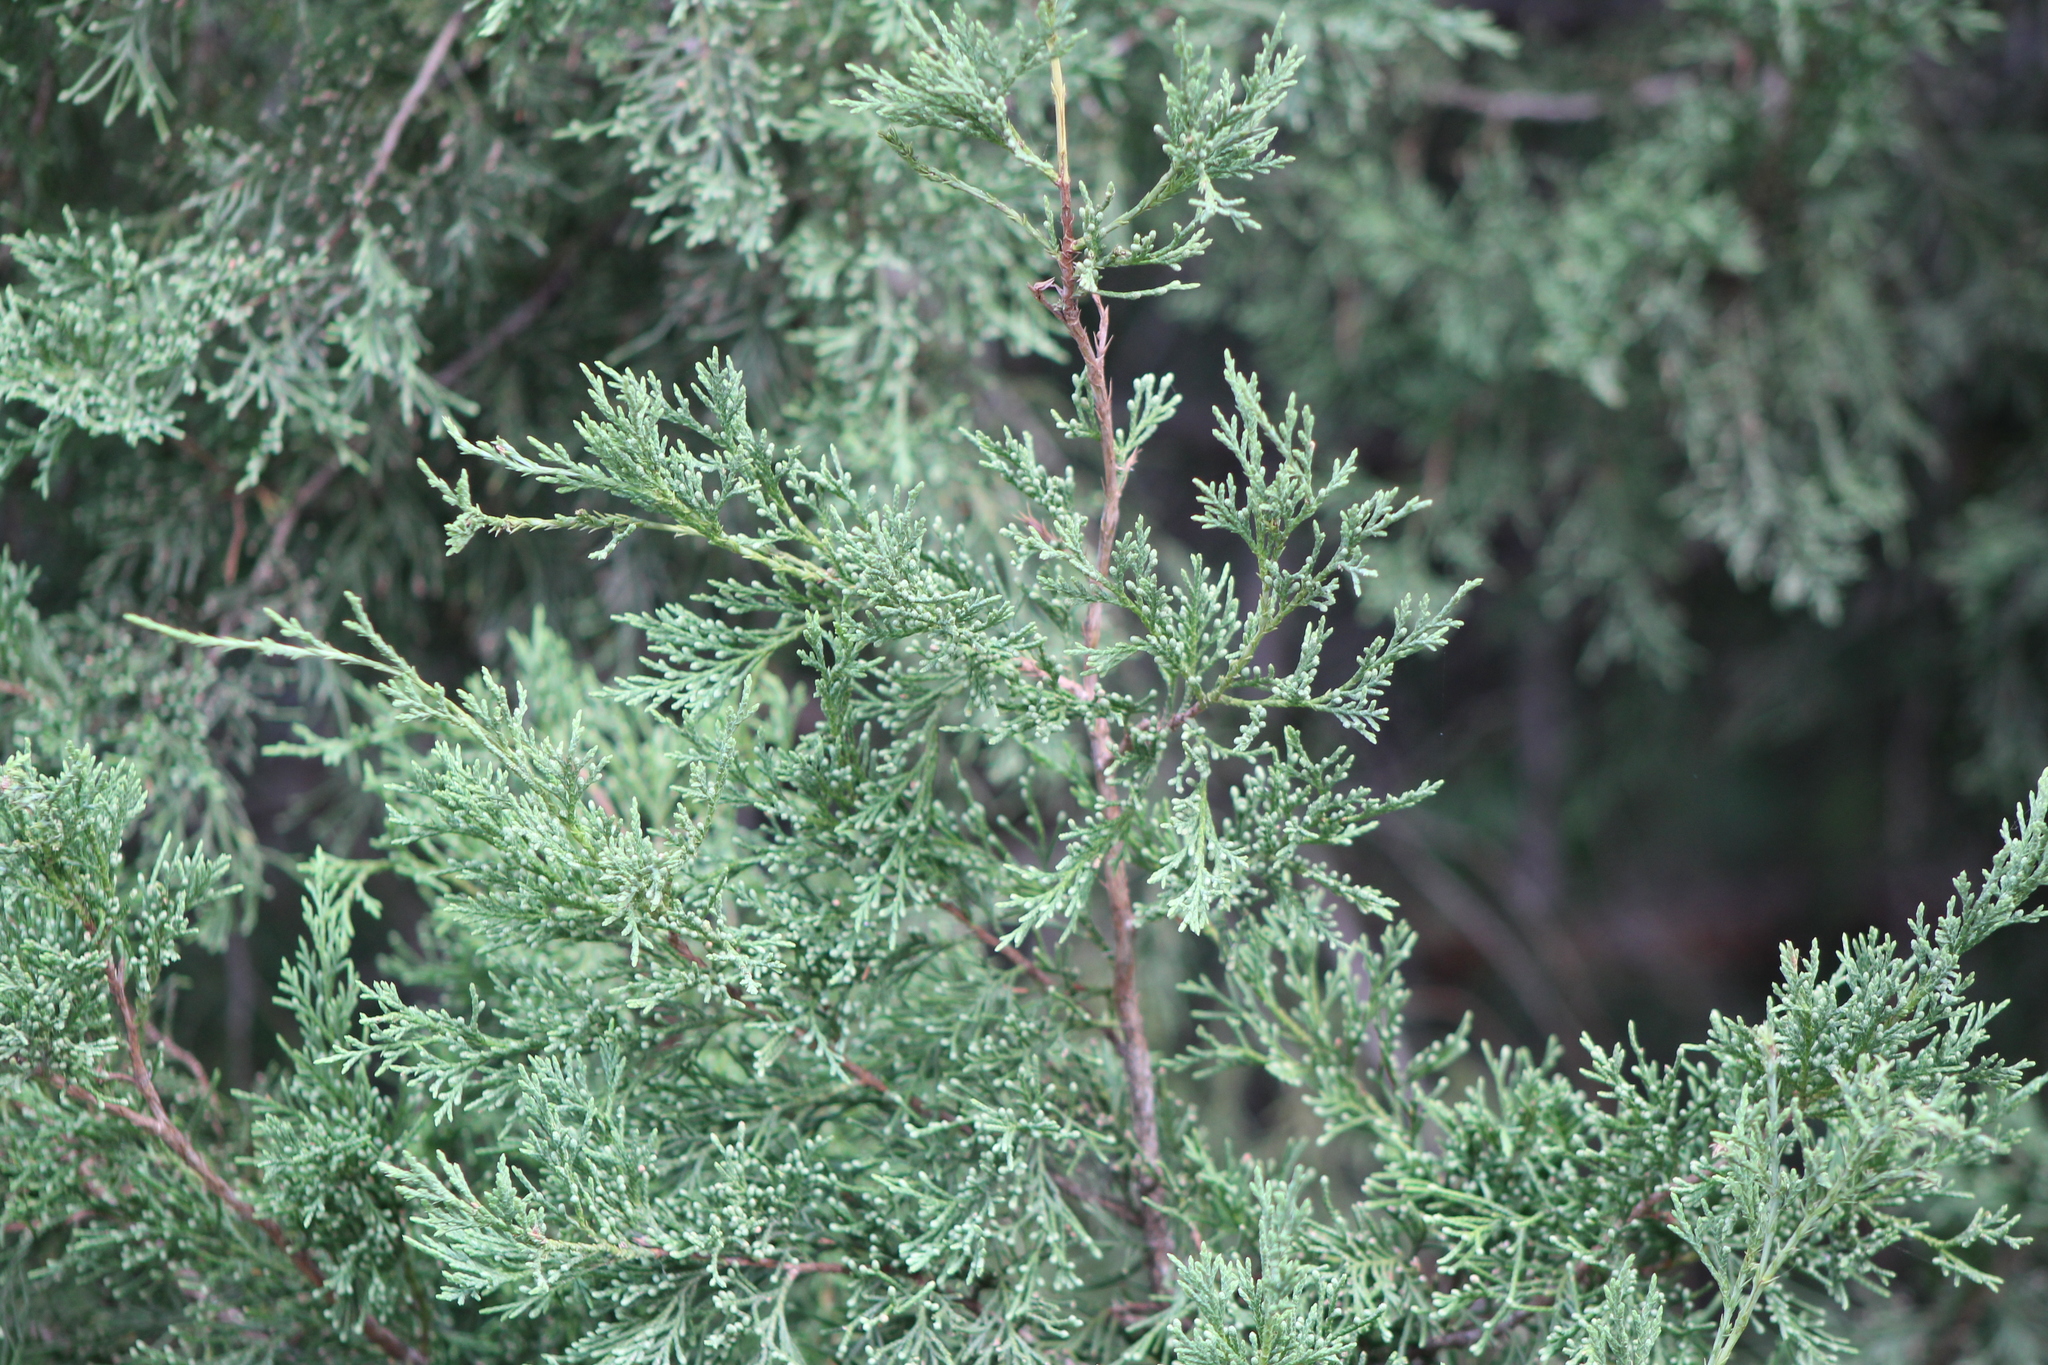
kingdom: Plantae
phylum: Tracheophyta
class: Pinopsida
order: Pinales
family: Cupressaceae
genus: Juniperus
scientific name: Juniperus virginiana
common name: Red juniper
